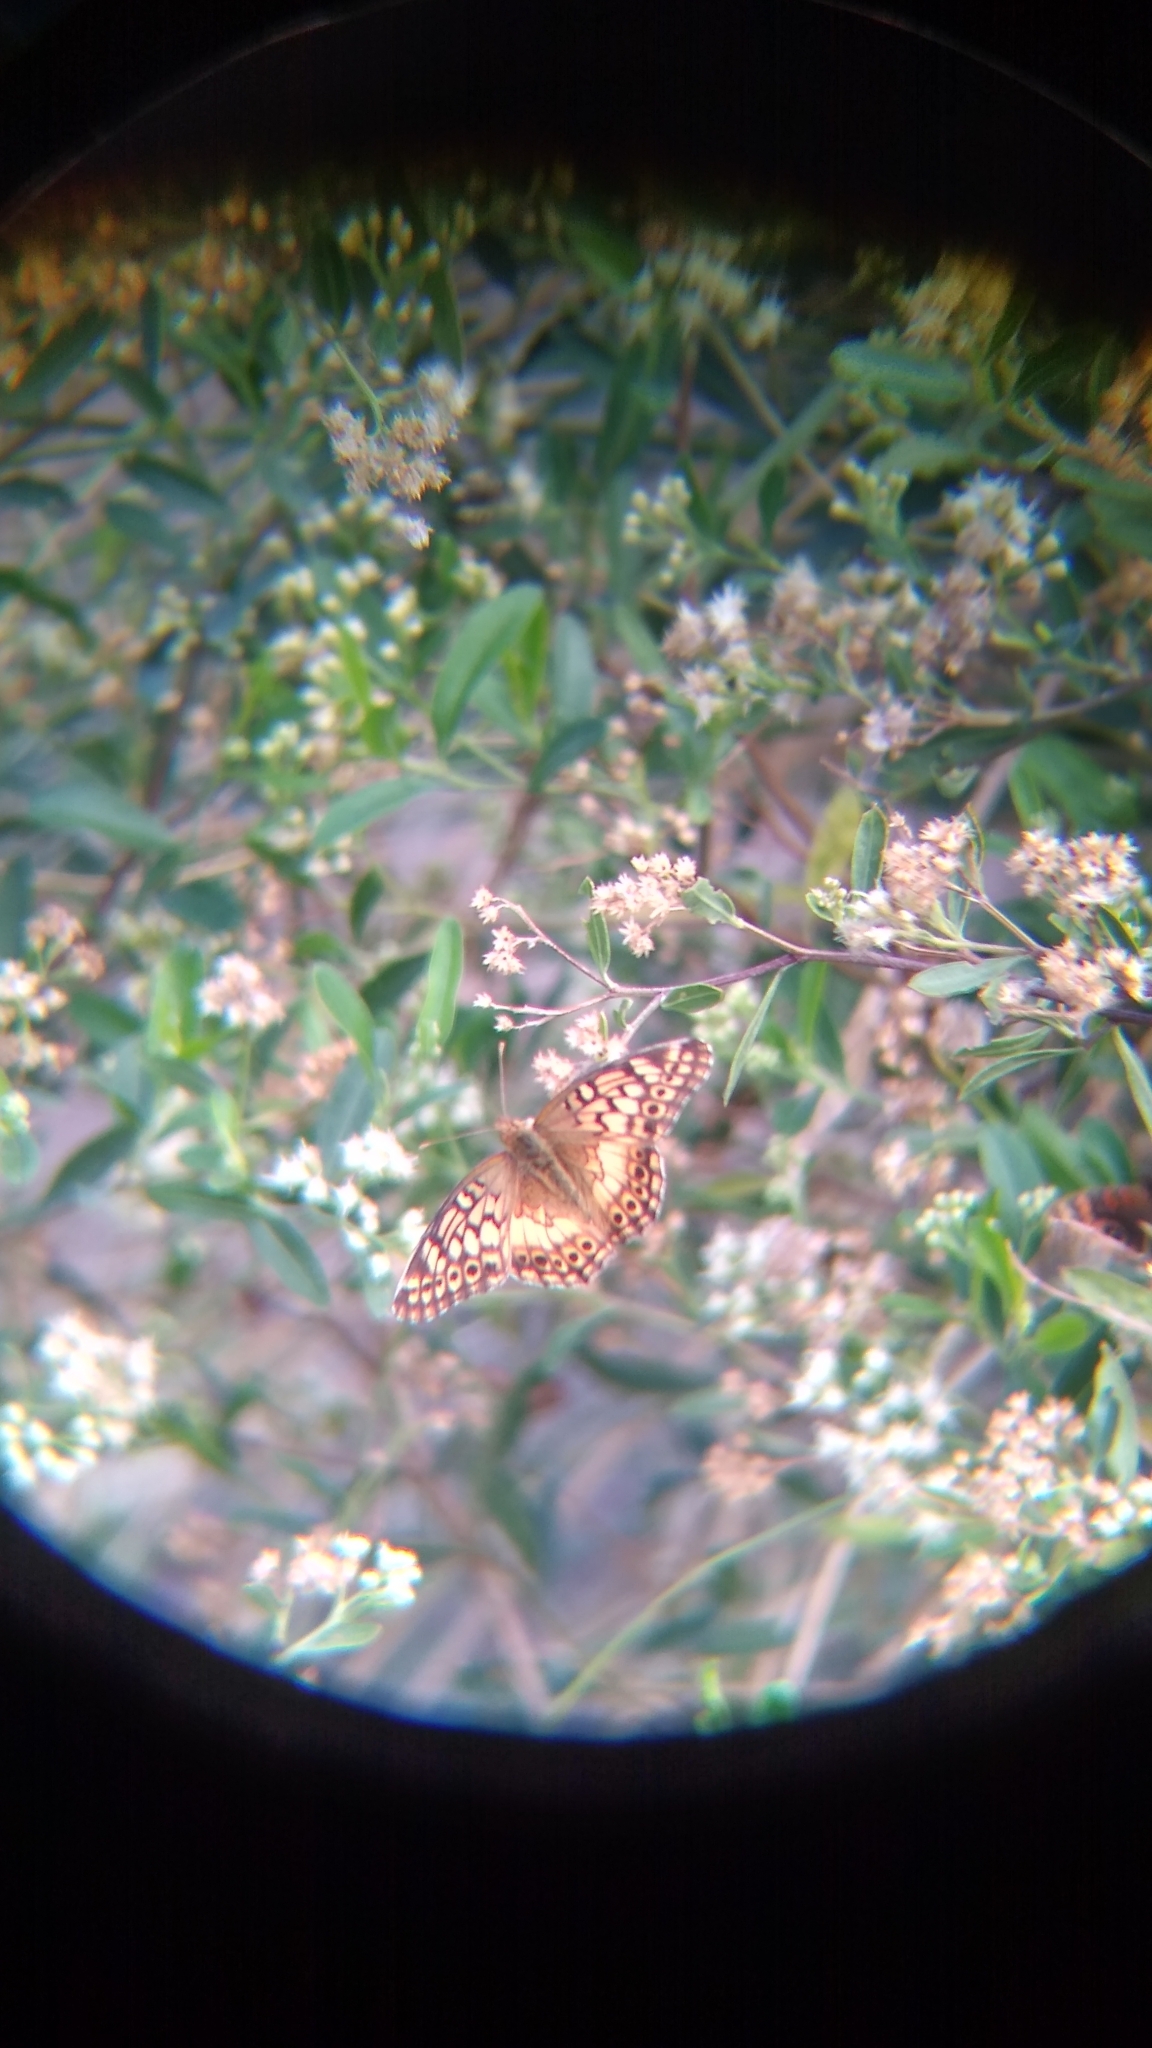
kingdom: Animalia
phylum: Arthropoda
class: Insecta
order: Lepidoptera
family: Nymphalidae
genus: Euptoieta
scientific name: Euptoieta hortensia
